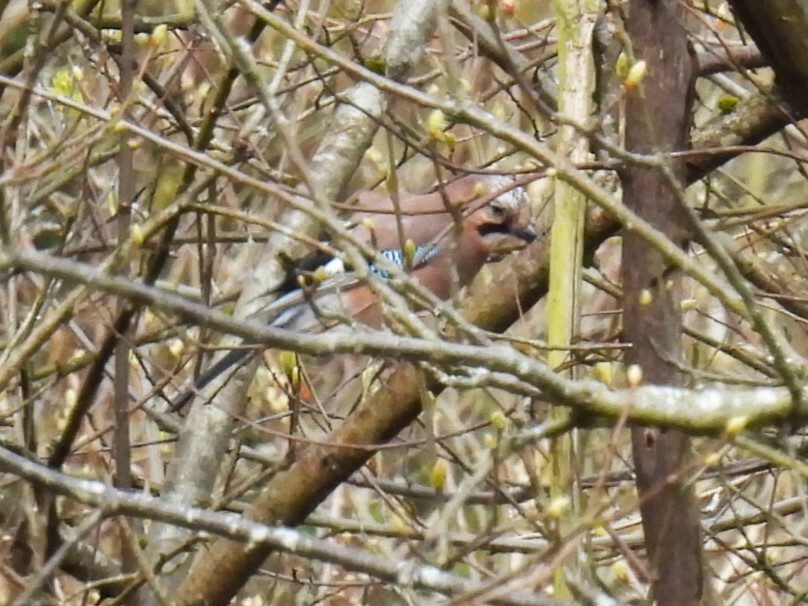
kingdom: Animalia
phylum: Chordata
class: Aves
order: Passeriformes
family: Corvidae
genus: Garrulus
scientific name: Garrulus glandarius
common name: Eurasian jay
